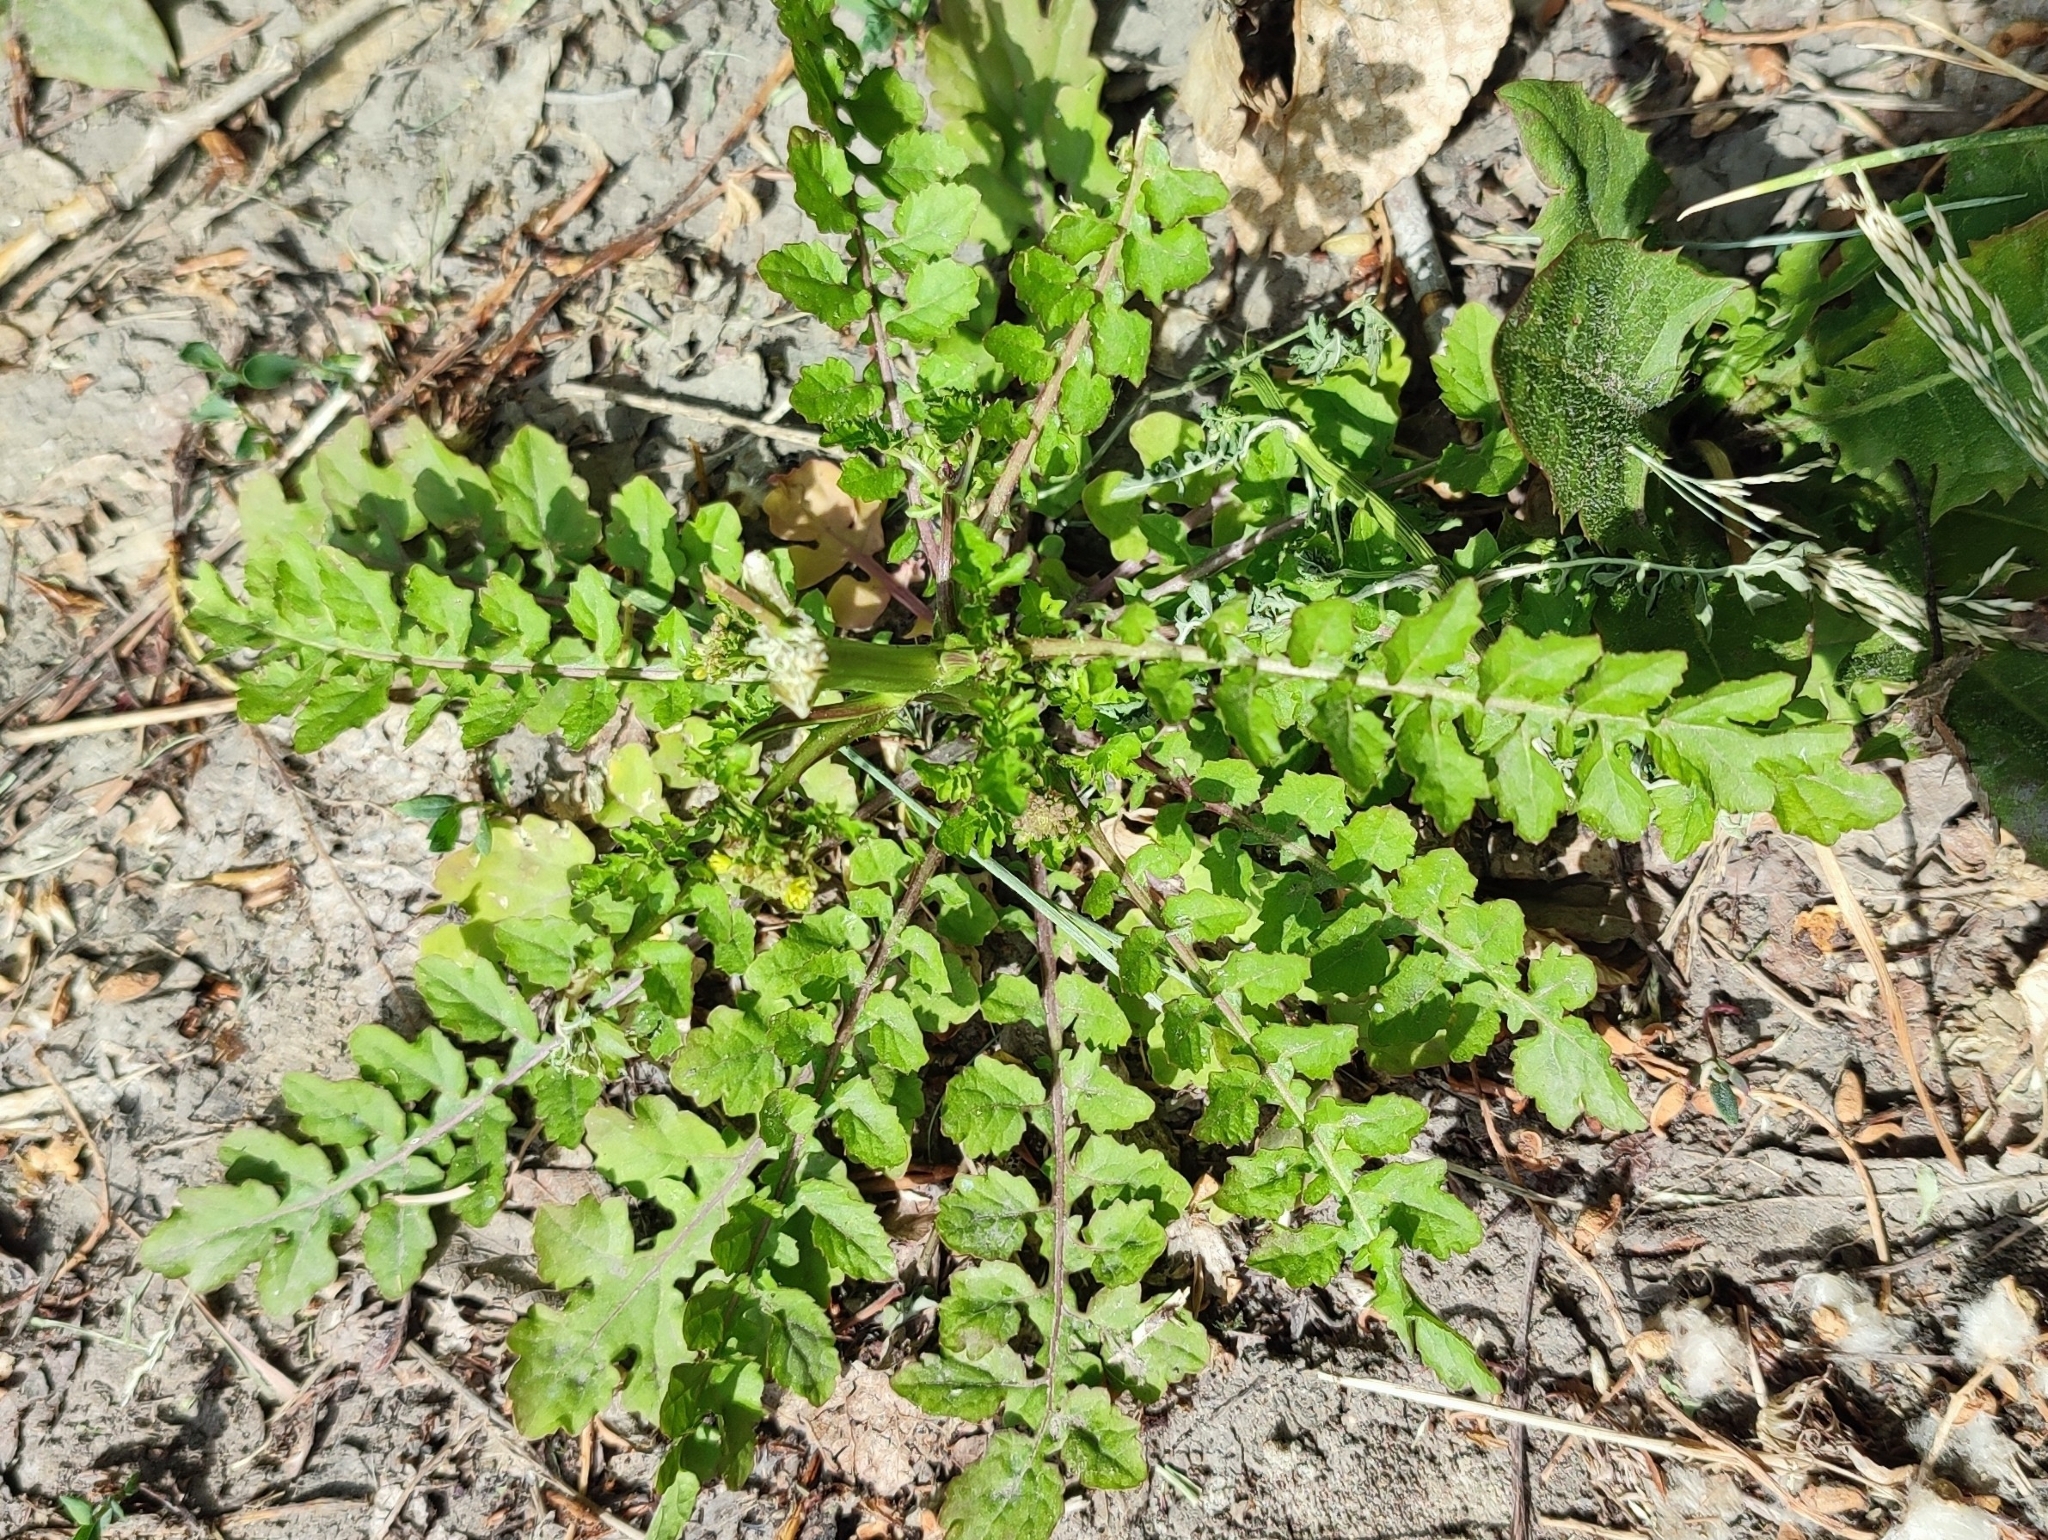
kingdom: Plantae
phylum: Tracheophyta
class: Magnoliopsida
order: Brassicales
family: Brassicaceae
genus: Rorippa
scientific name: Rorippa palustris
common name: Marsh yellow-cress
